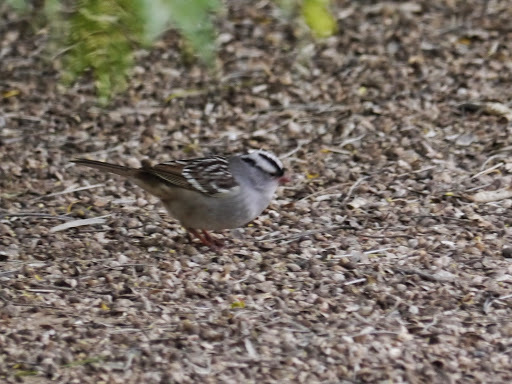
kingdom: Animalia
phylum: Chordata
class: Aves
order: Passeriformes
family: Passerellidae
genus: Zonotrichia
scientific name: Zonotrichia leucophrys
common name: White-crowned sparrow
